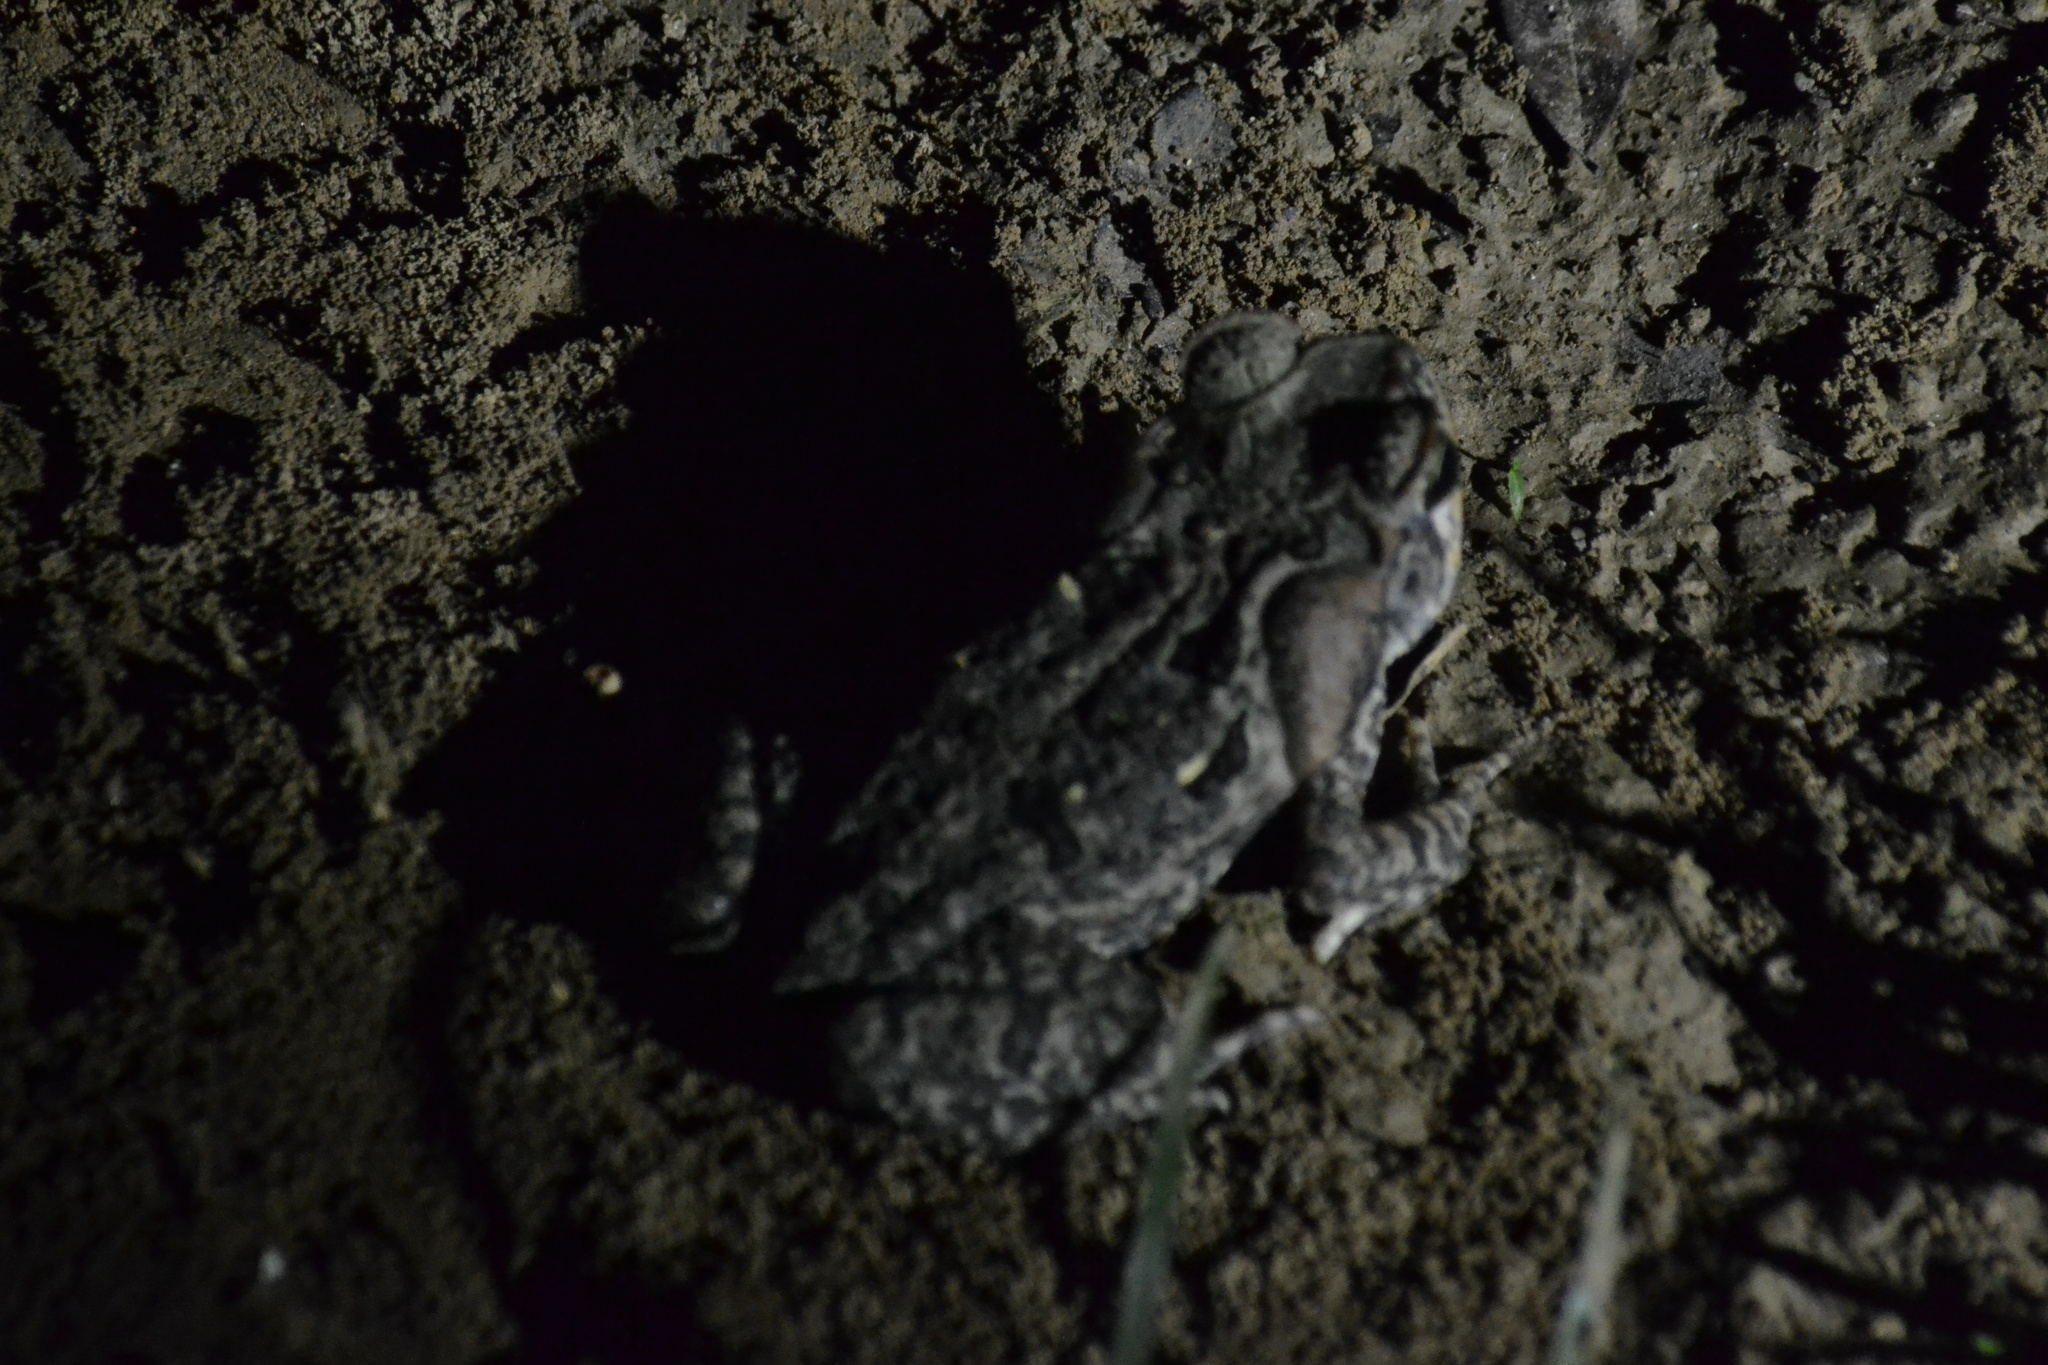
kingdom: Animalia
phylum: Chordata
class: Amphibia
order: Anura
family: Bufonidae
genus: Rhinella
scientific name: Rhinella marina
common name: Cane toad
